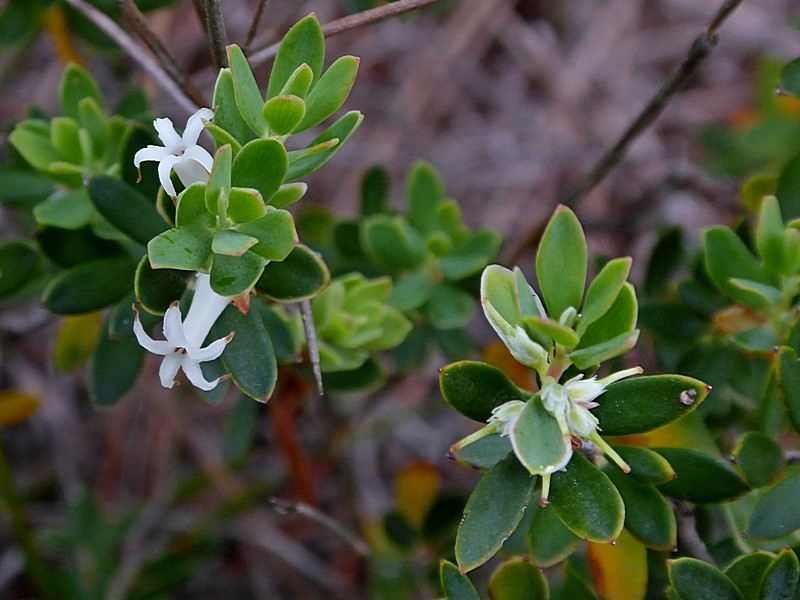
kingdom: Plantae
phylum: Tracheophyta
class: Magnoliopsida
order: Ericales
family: Ericaceae
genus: Brachyloma
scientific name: Brachyloma daphnoides
